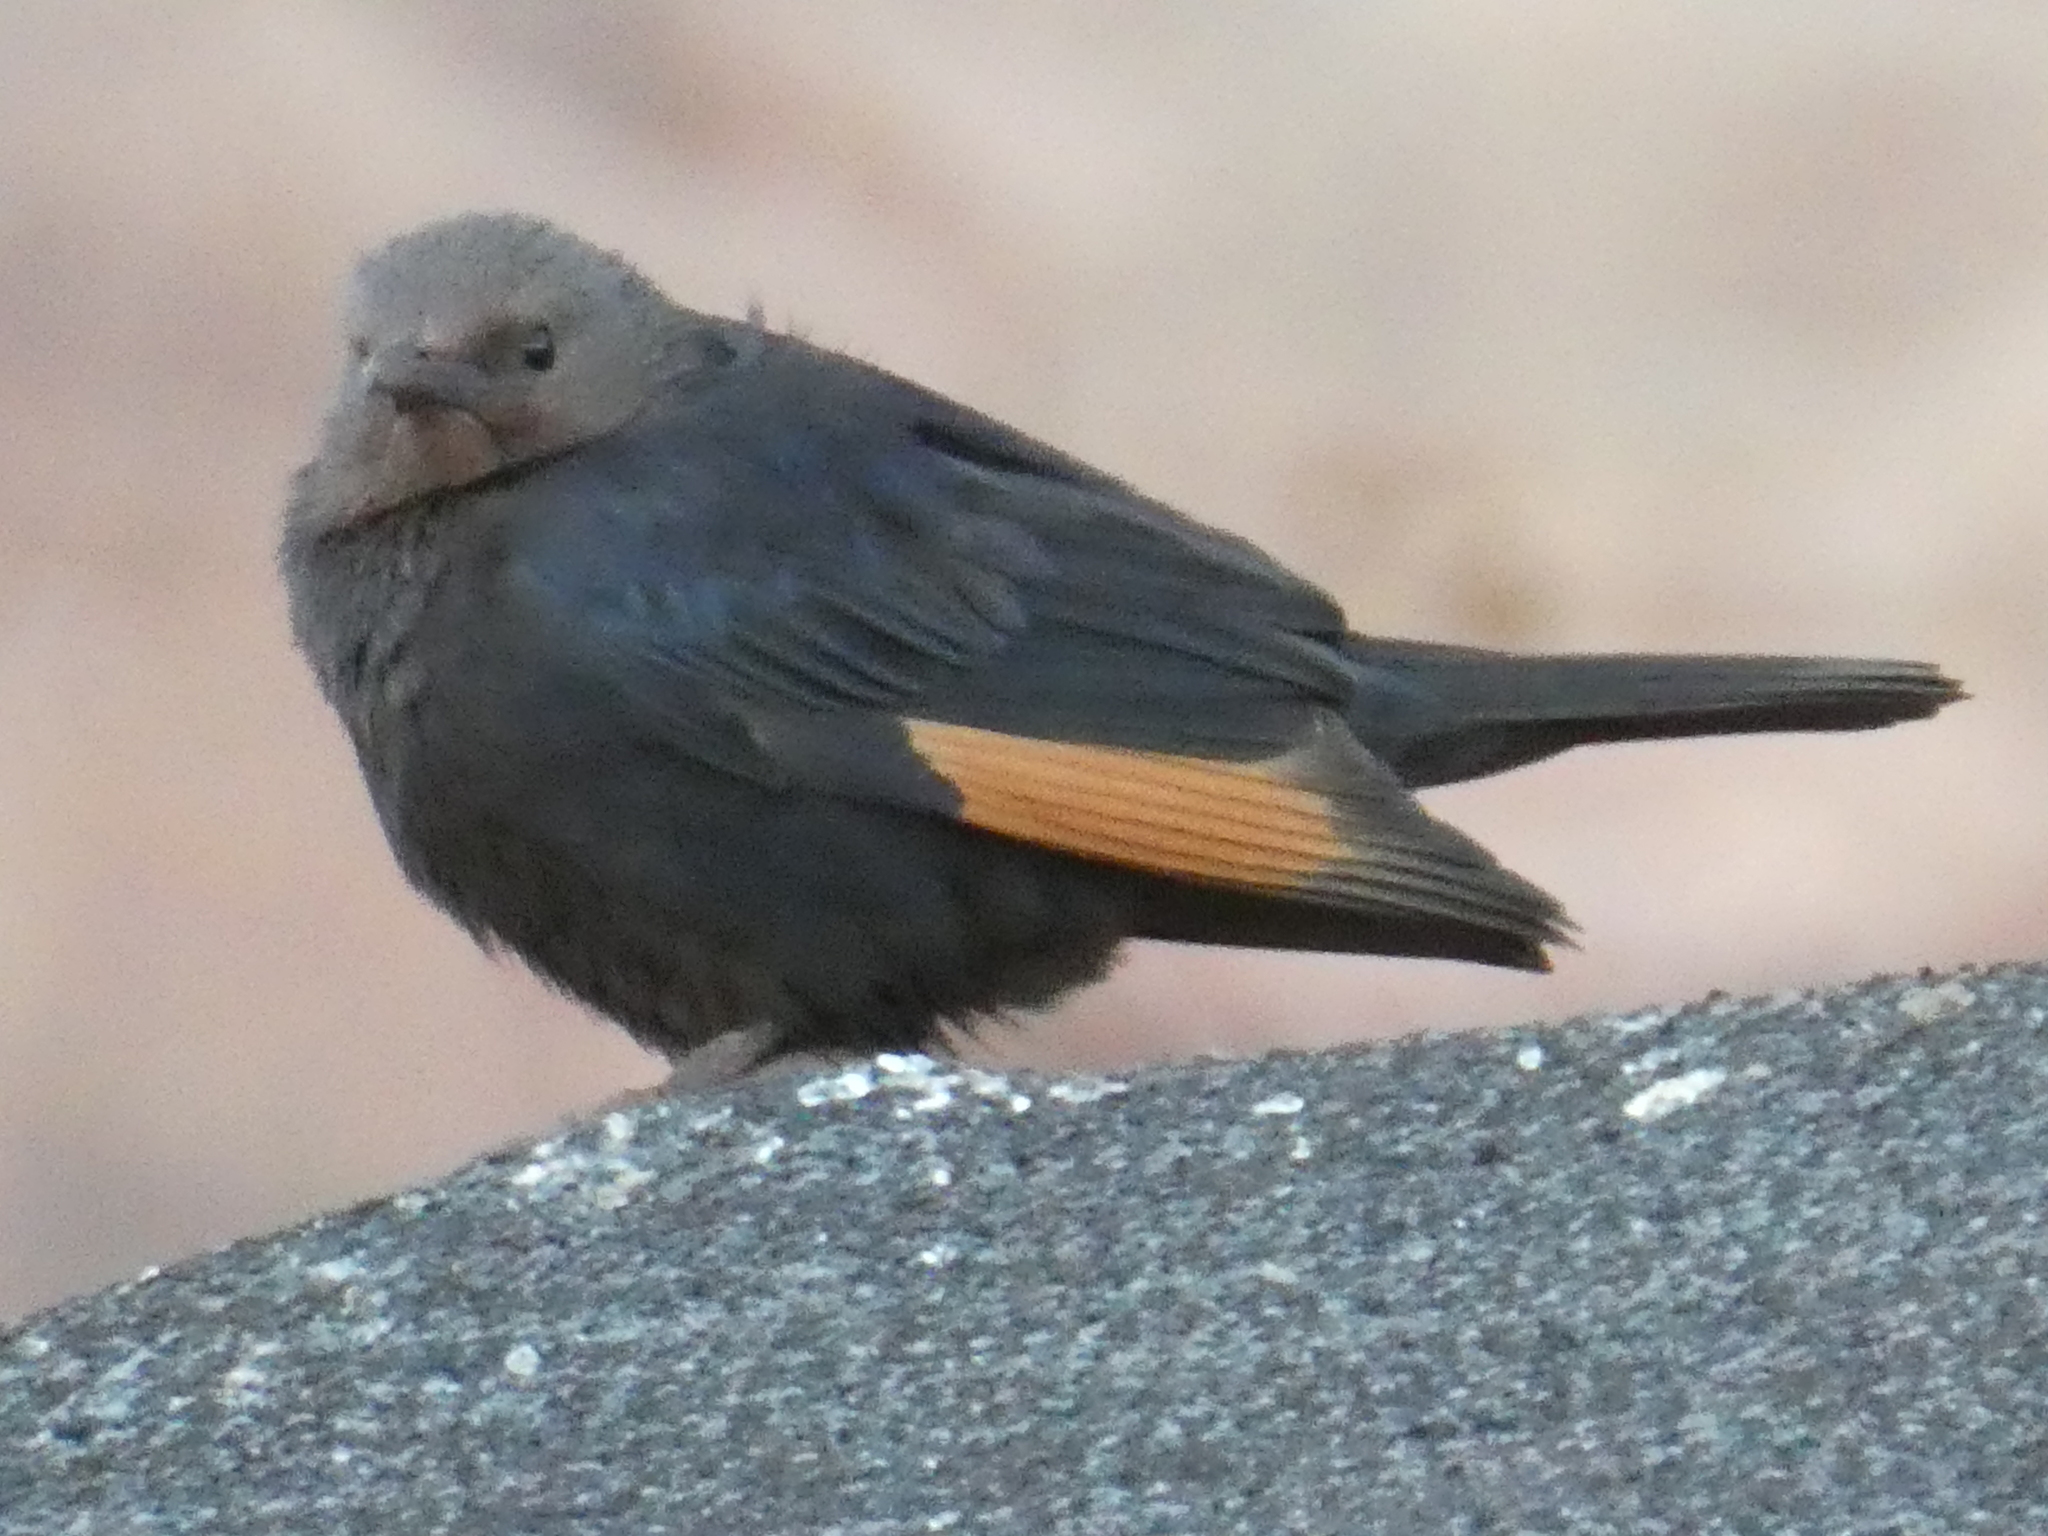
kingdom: Animalia
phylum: Chordata
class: Aves
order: Passeriformes
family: Sturnidae
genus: Onychognathus
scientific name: Onychognathus tristramii
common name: Tristram's starling
